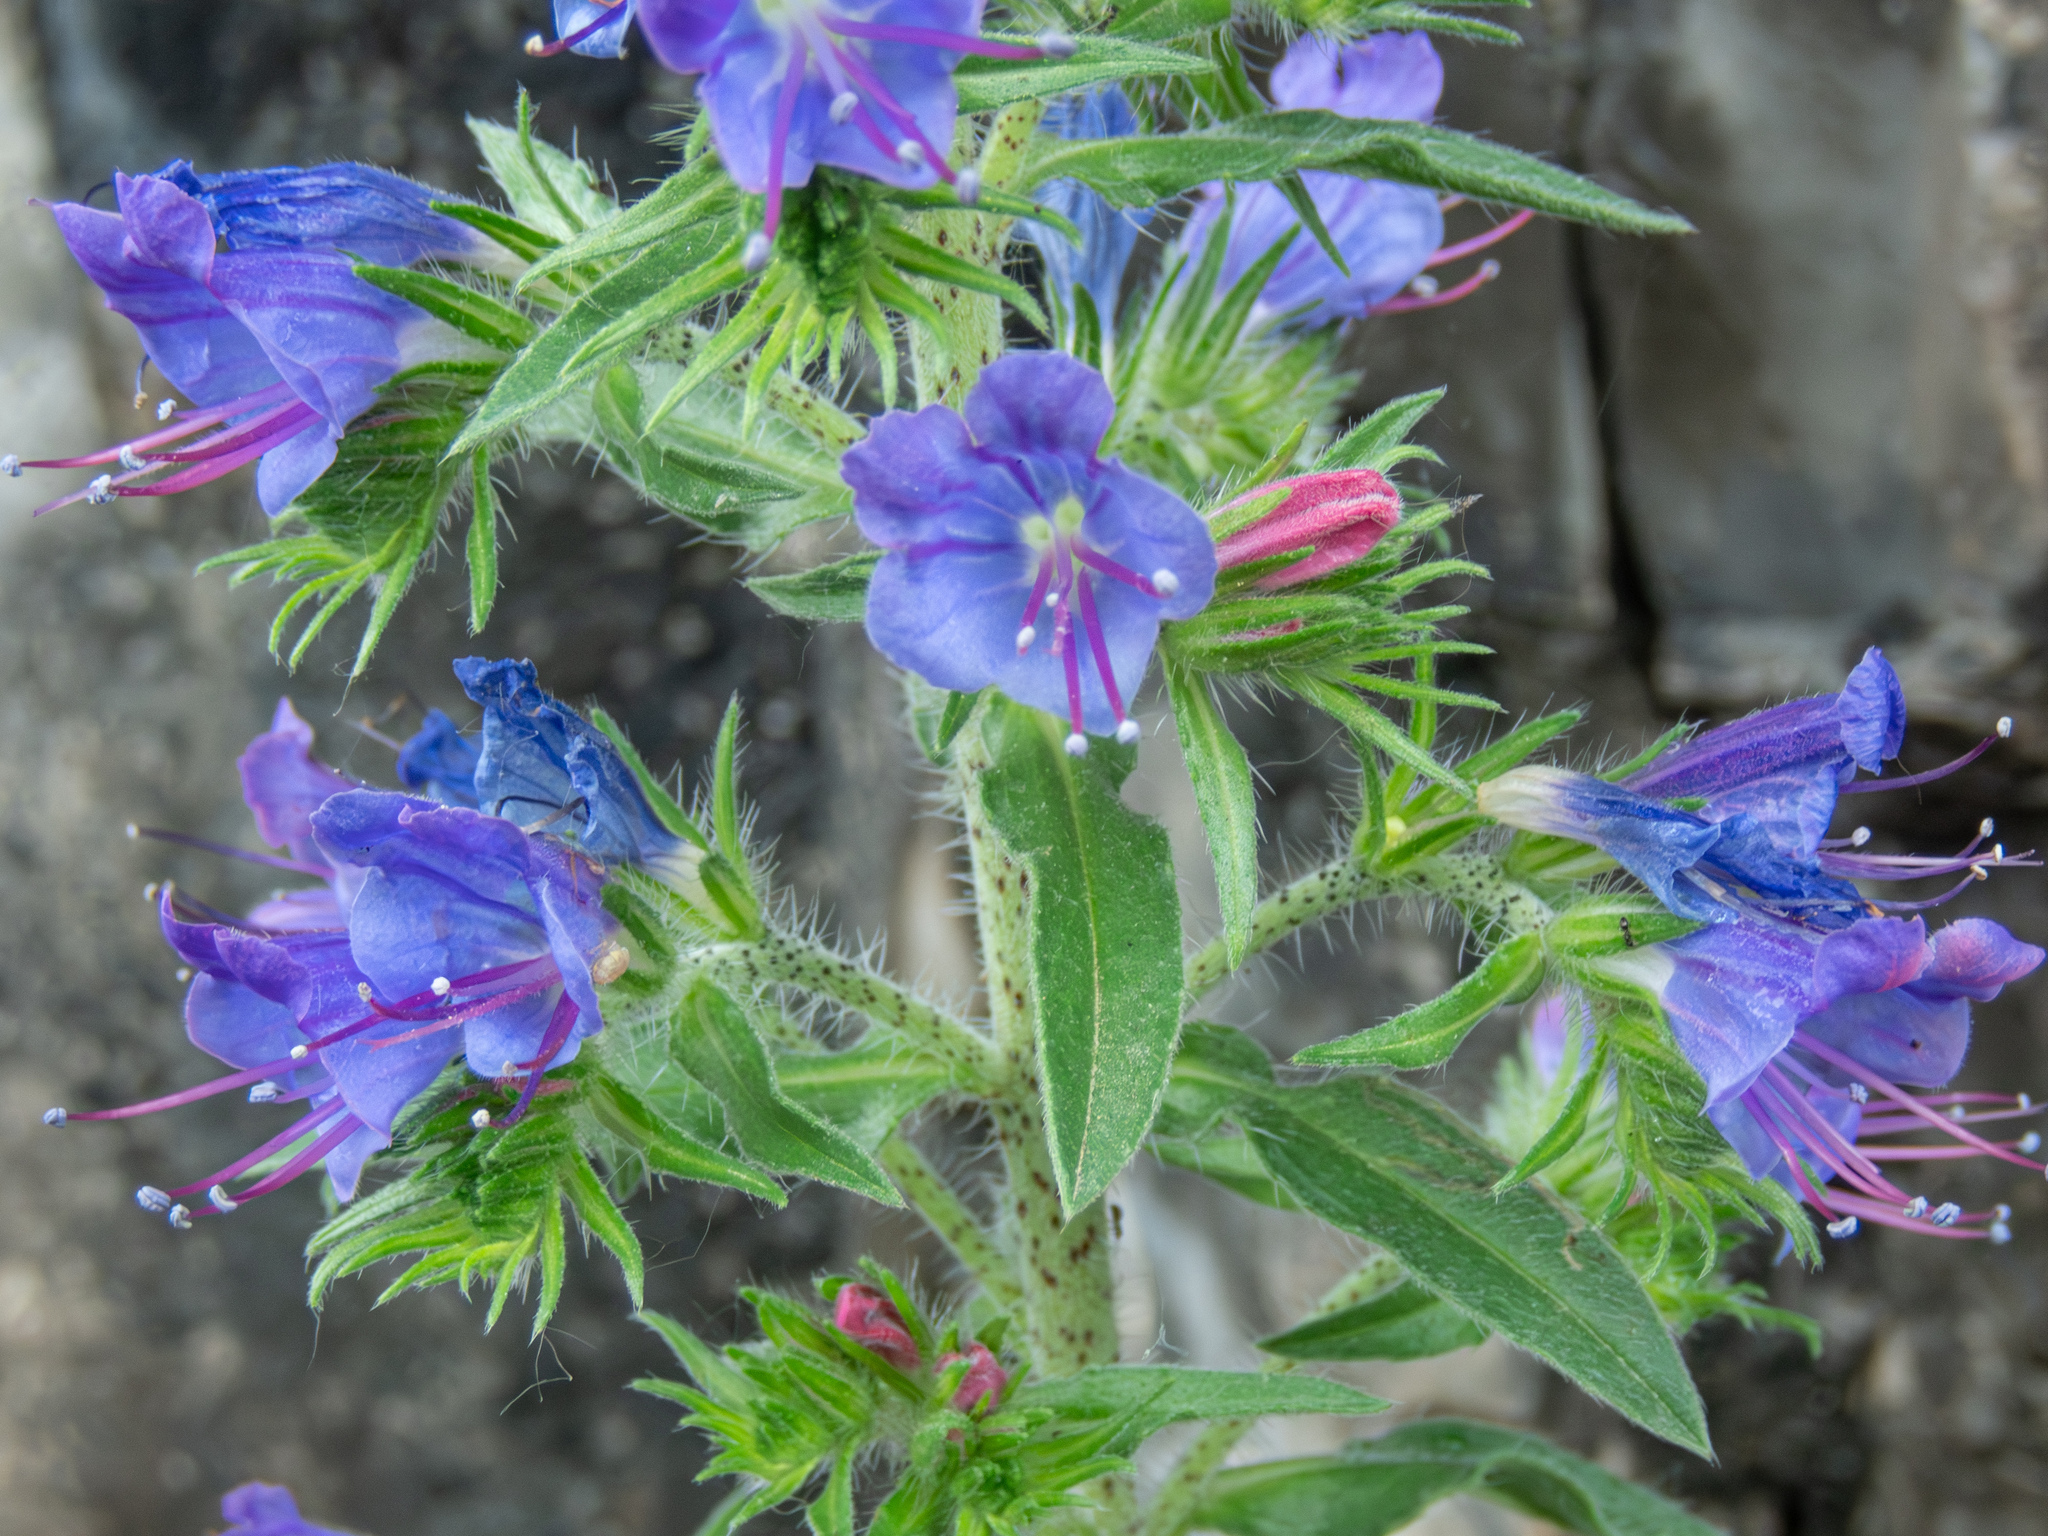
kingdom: Plantae
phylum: Tracheophyta
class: Magnoliopsida
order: Boraginales
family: Boraginaceae
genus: Echium
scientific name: Echium vulgare
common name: Common viper's bugloss
